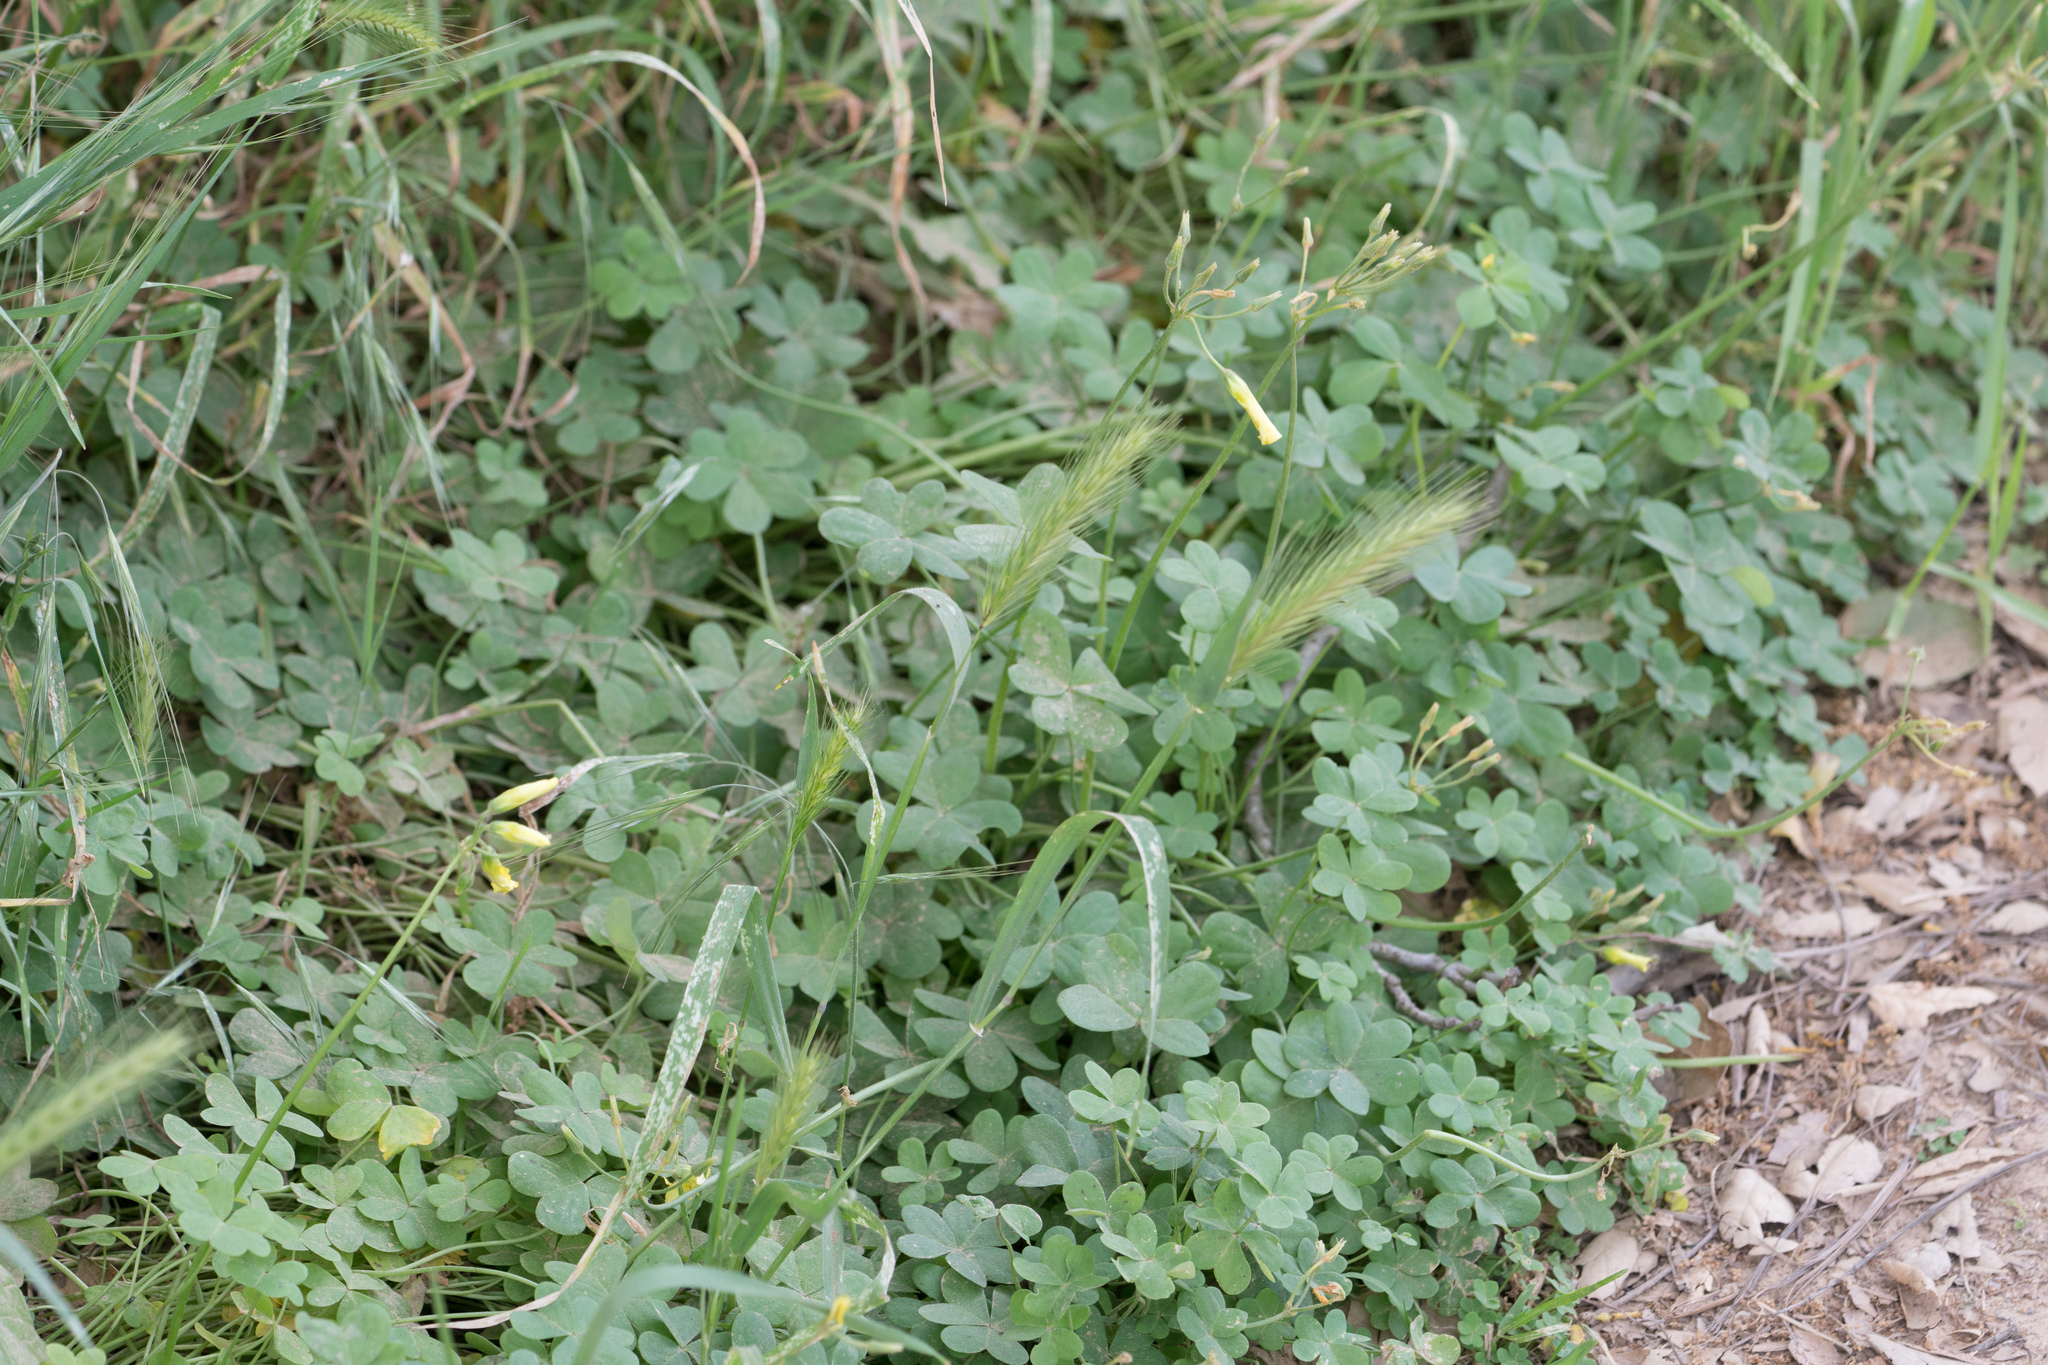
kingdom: Plantae
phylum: Tracheophyta
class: Magnoliopsida
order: Oxalidales
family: Oxalidaceae
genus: Oxalis
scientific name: Oxalis pes-caprae
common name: Bermuda-buttercup
